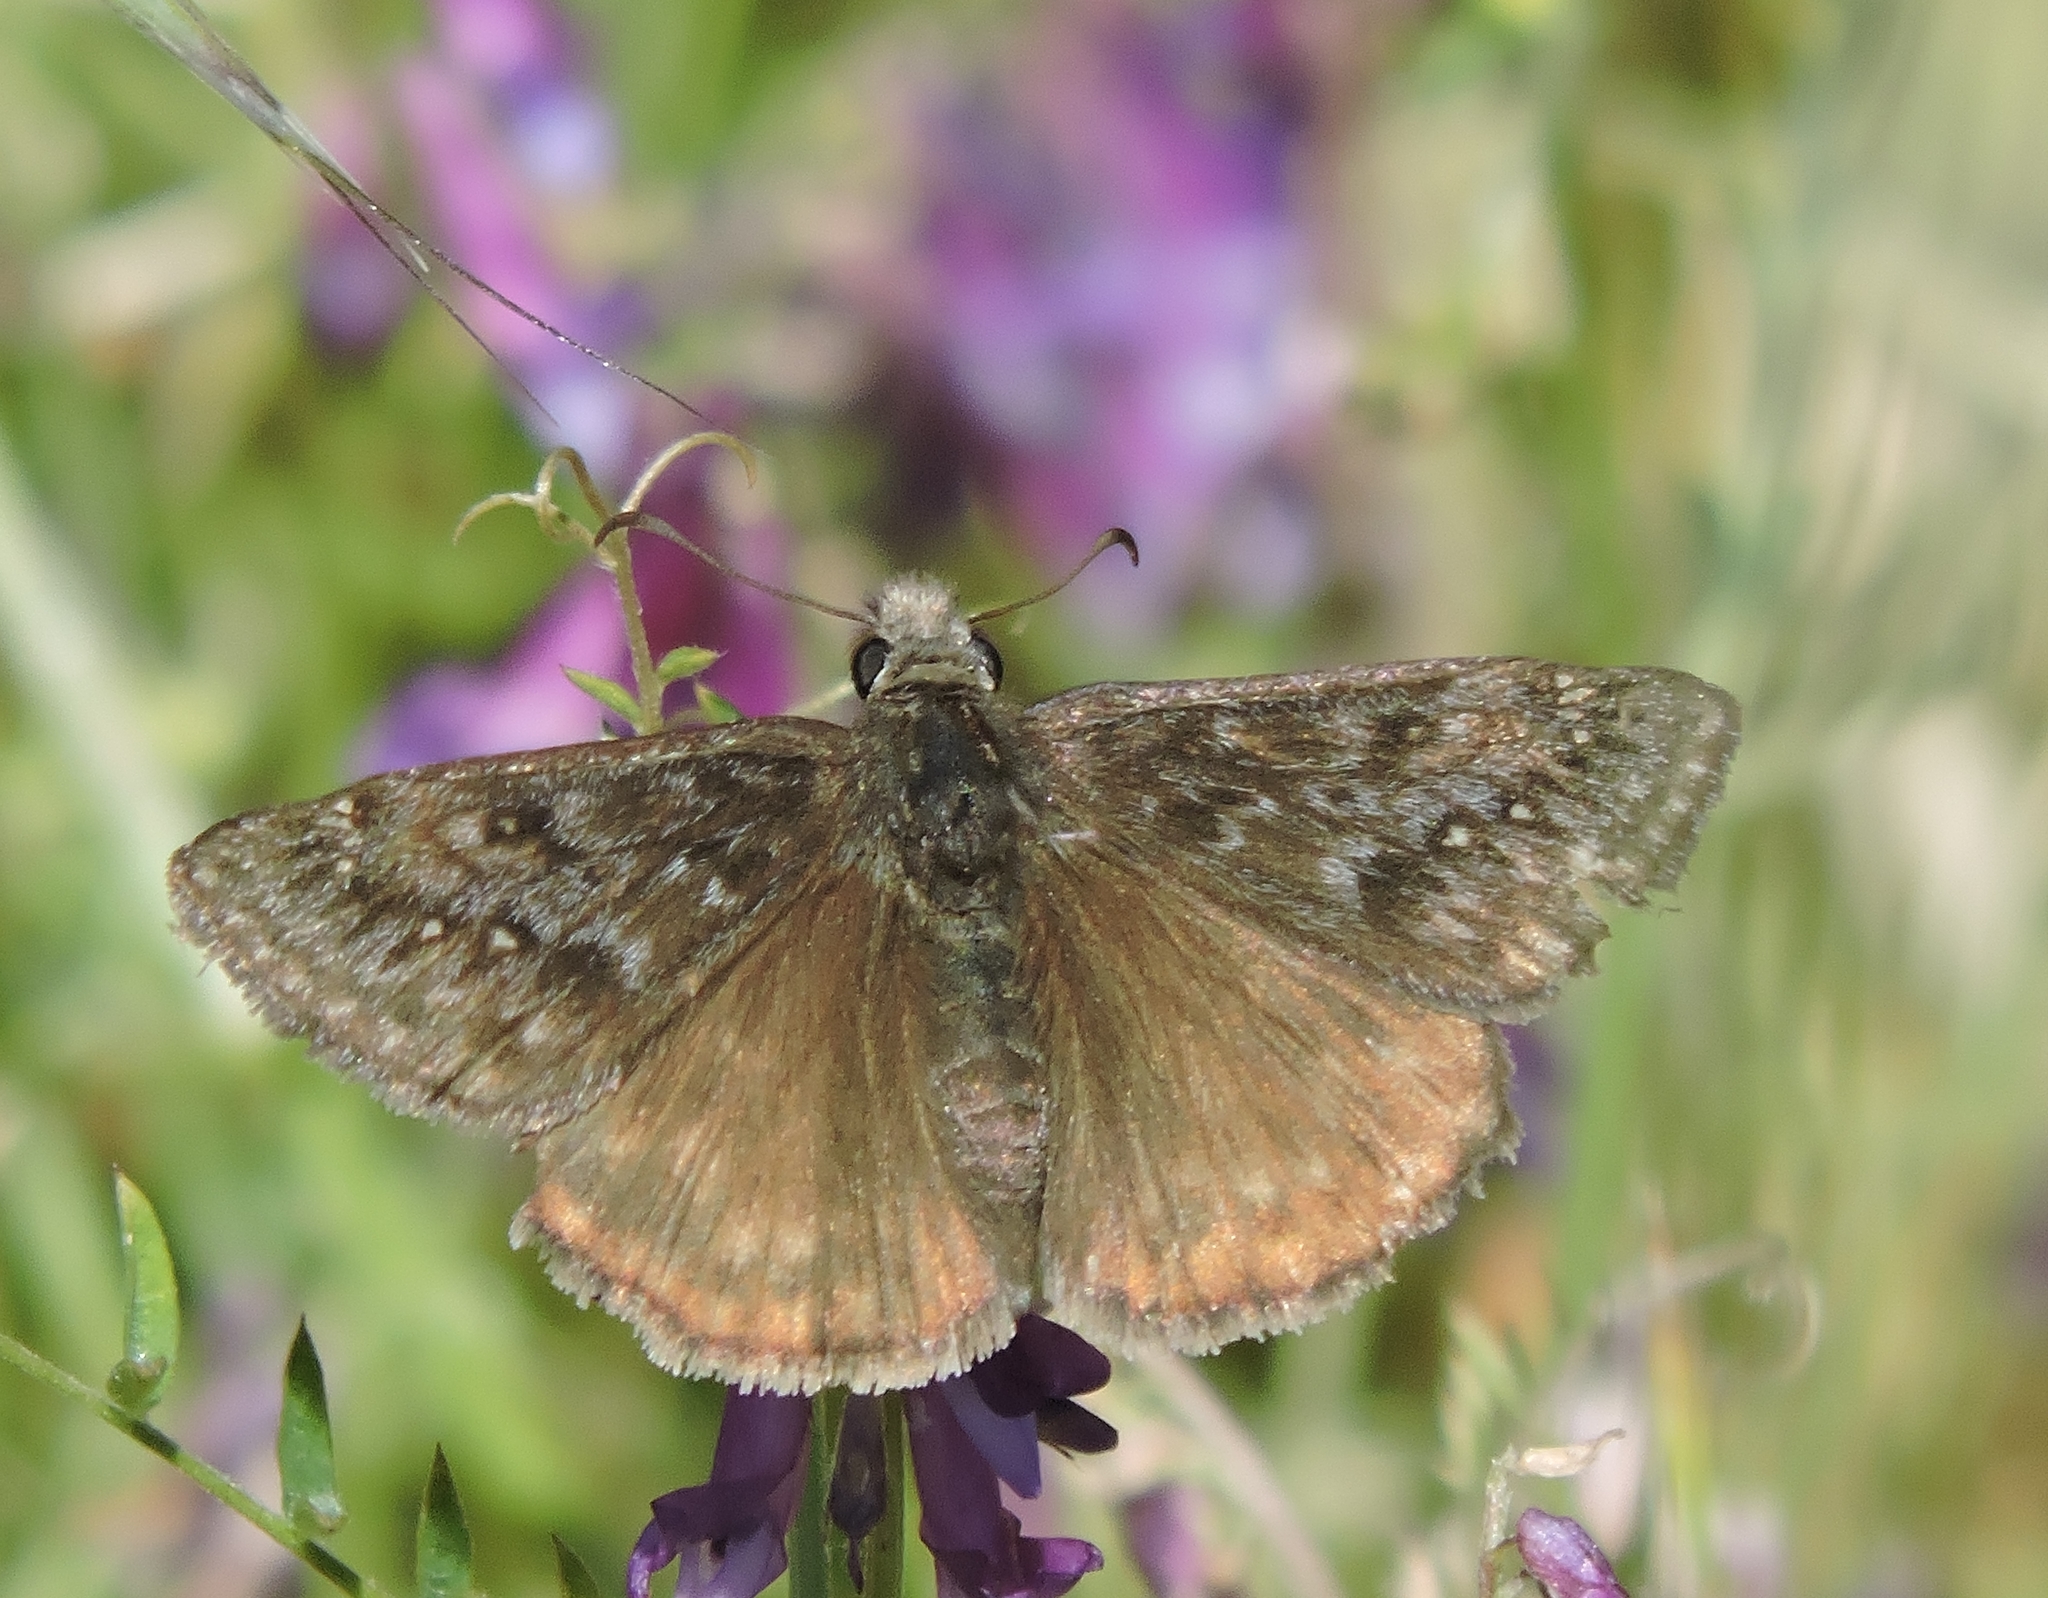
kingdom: Animalia
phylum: Arthropoda
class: Insecta
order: Lepidoptera
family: Hesperiidae
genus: Erynnis
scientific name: Erynnis propertius
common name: Propertius duskywing
